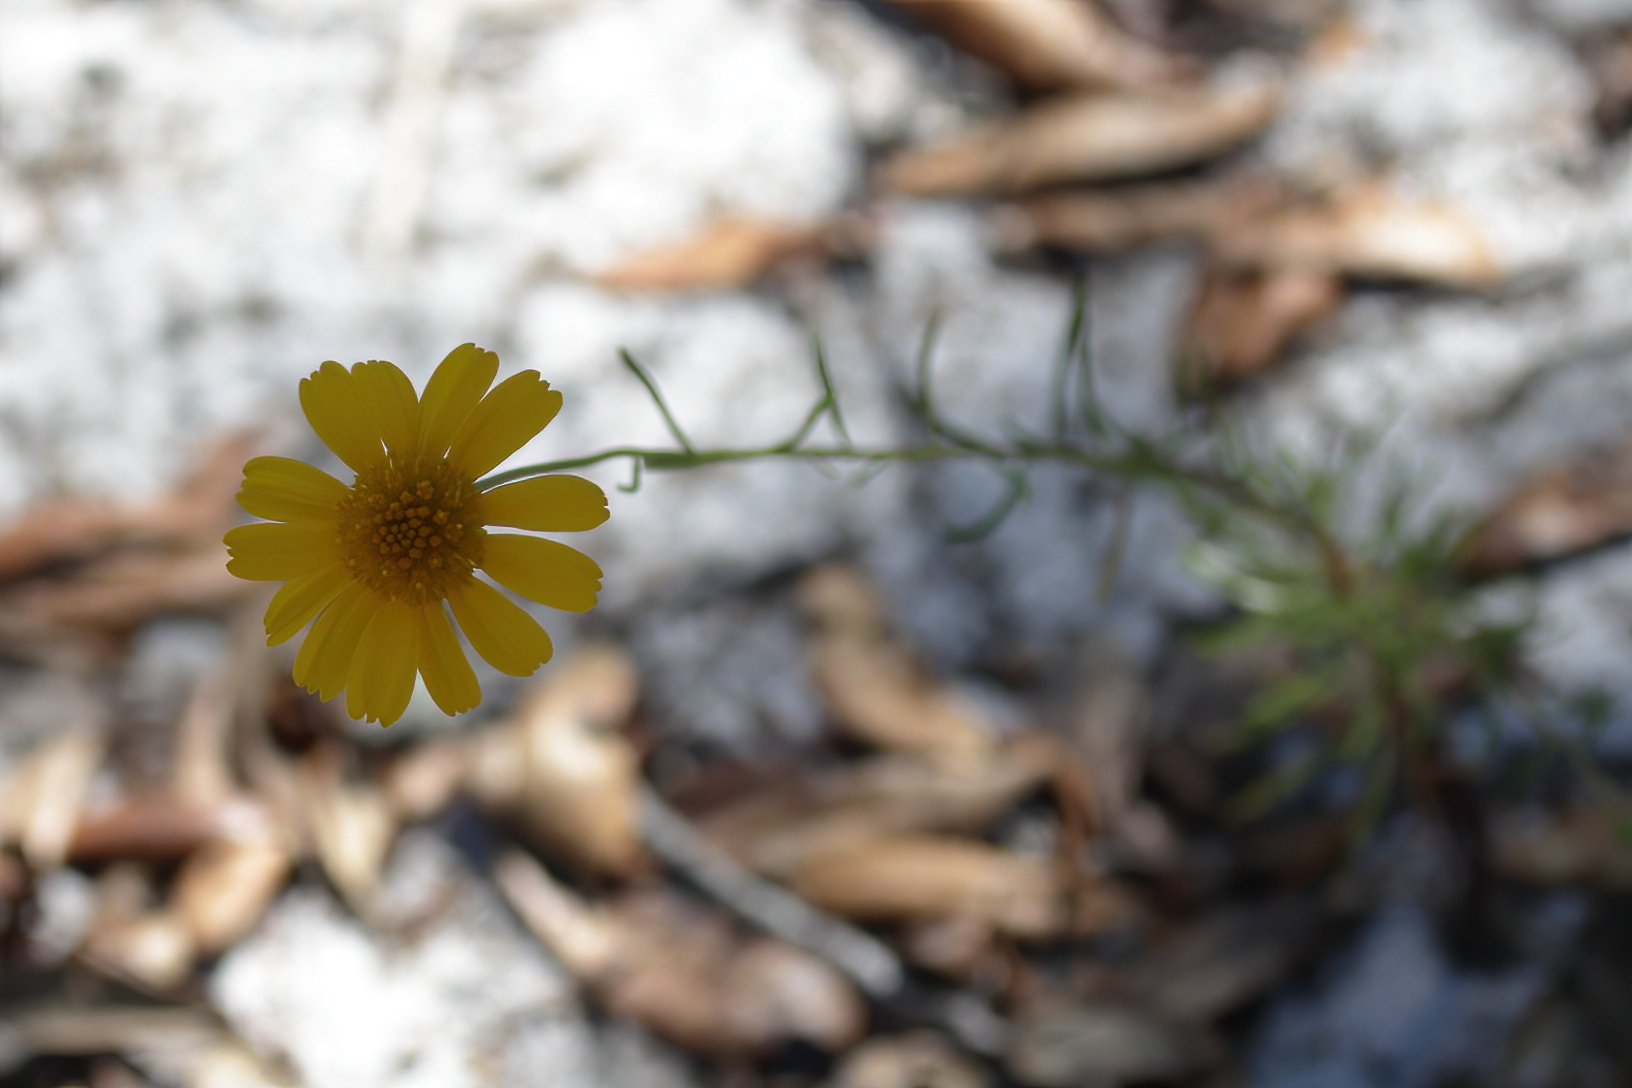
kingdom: Plantae
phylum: Tracheophyta
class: Magnoliopsida
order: Asterales
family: Asteraceae
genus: Balduina
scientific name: Balduina angustifolia
